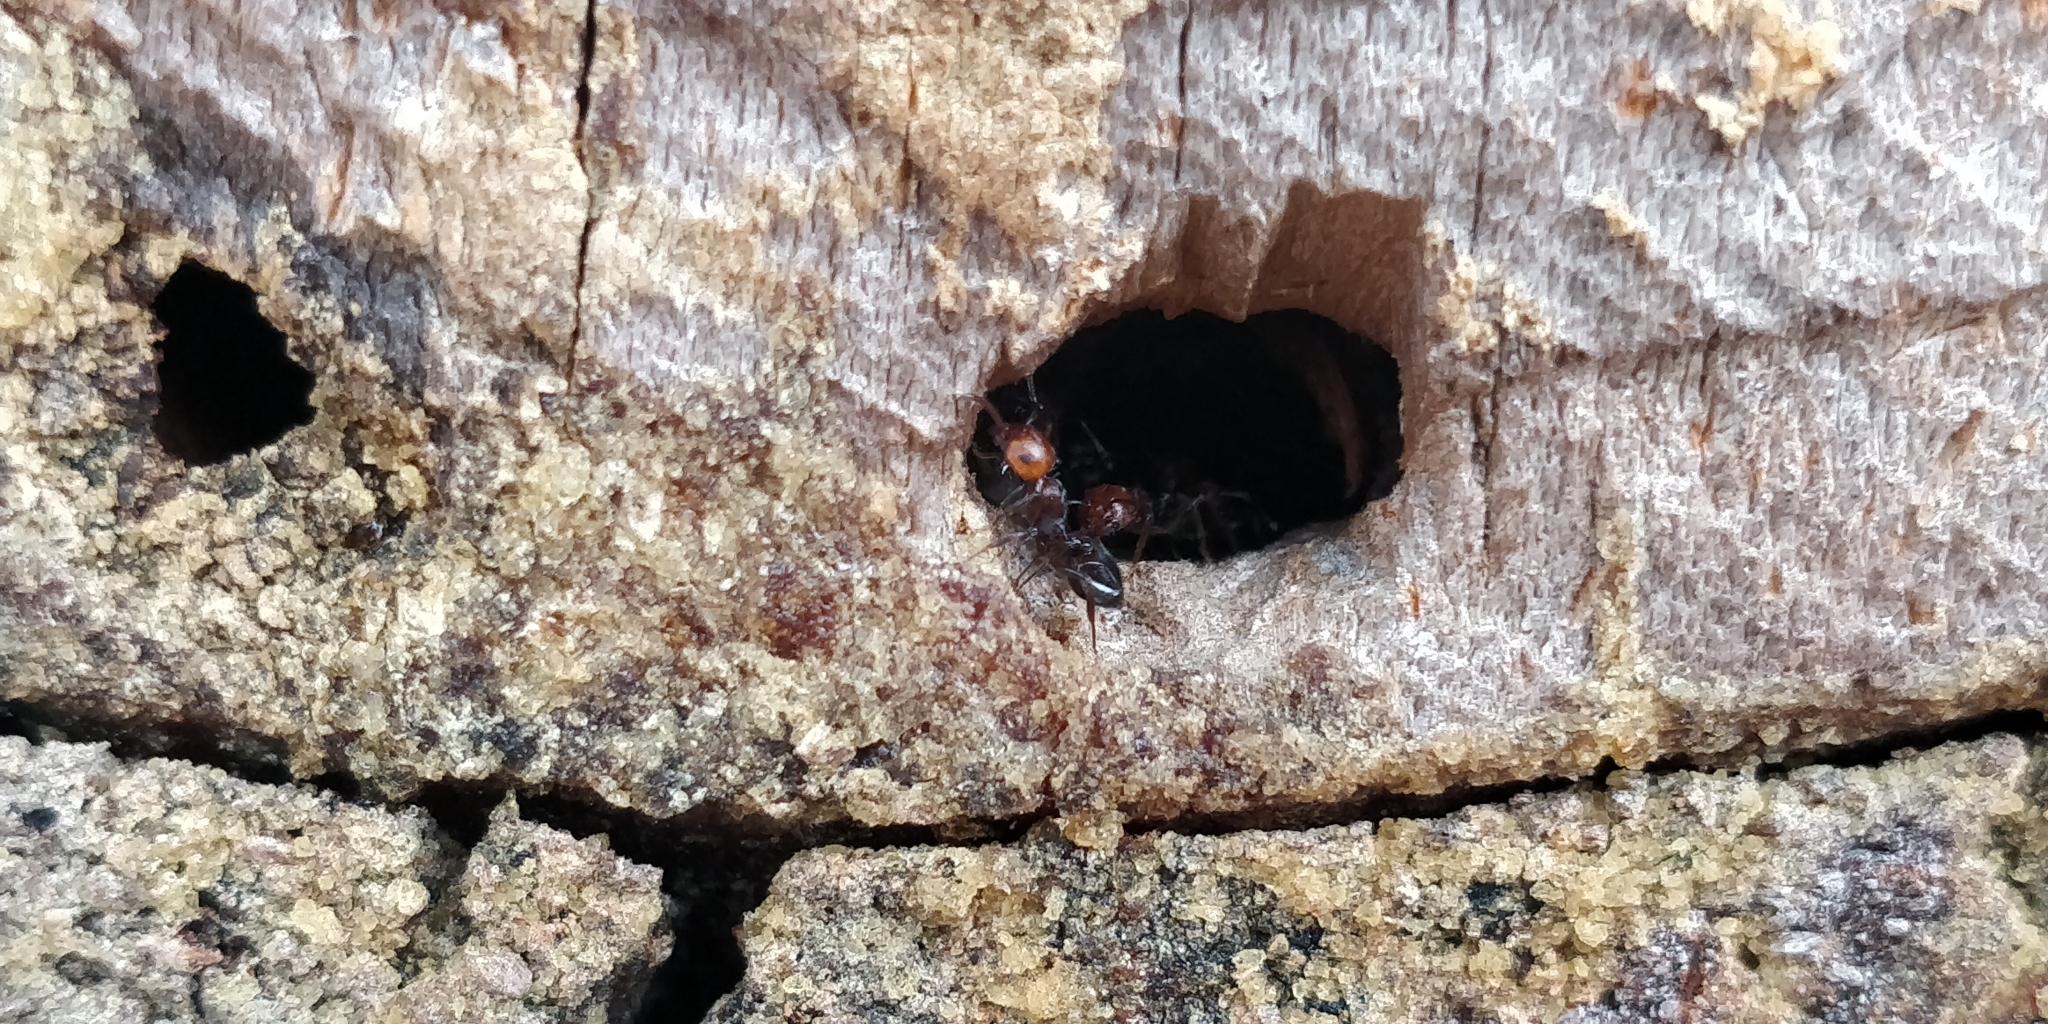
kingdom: Animalia
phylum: Arthropoda
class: Insecta
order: Hymenoptera
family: Formicidae
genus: Crematogaster
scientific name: Crematogaster scutellaris
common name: Fourmi du liège
